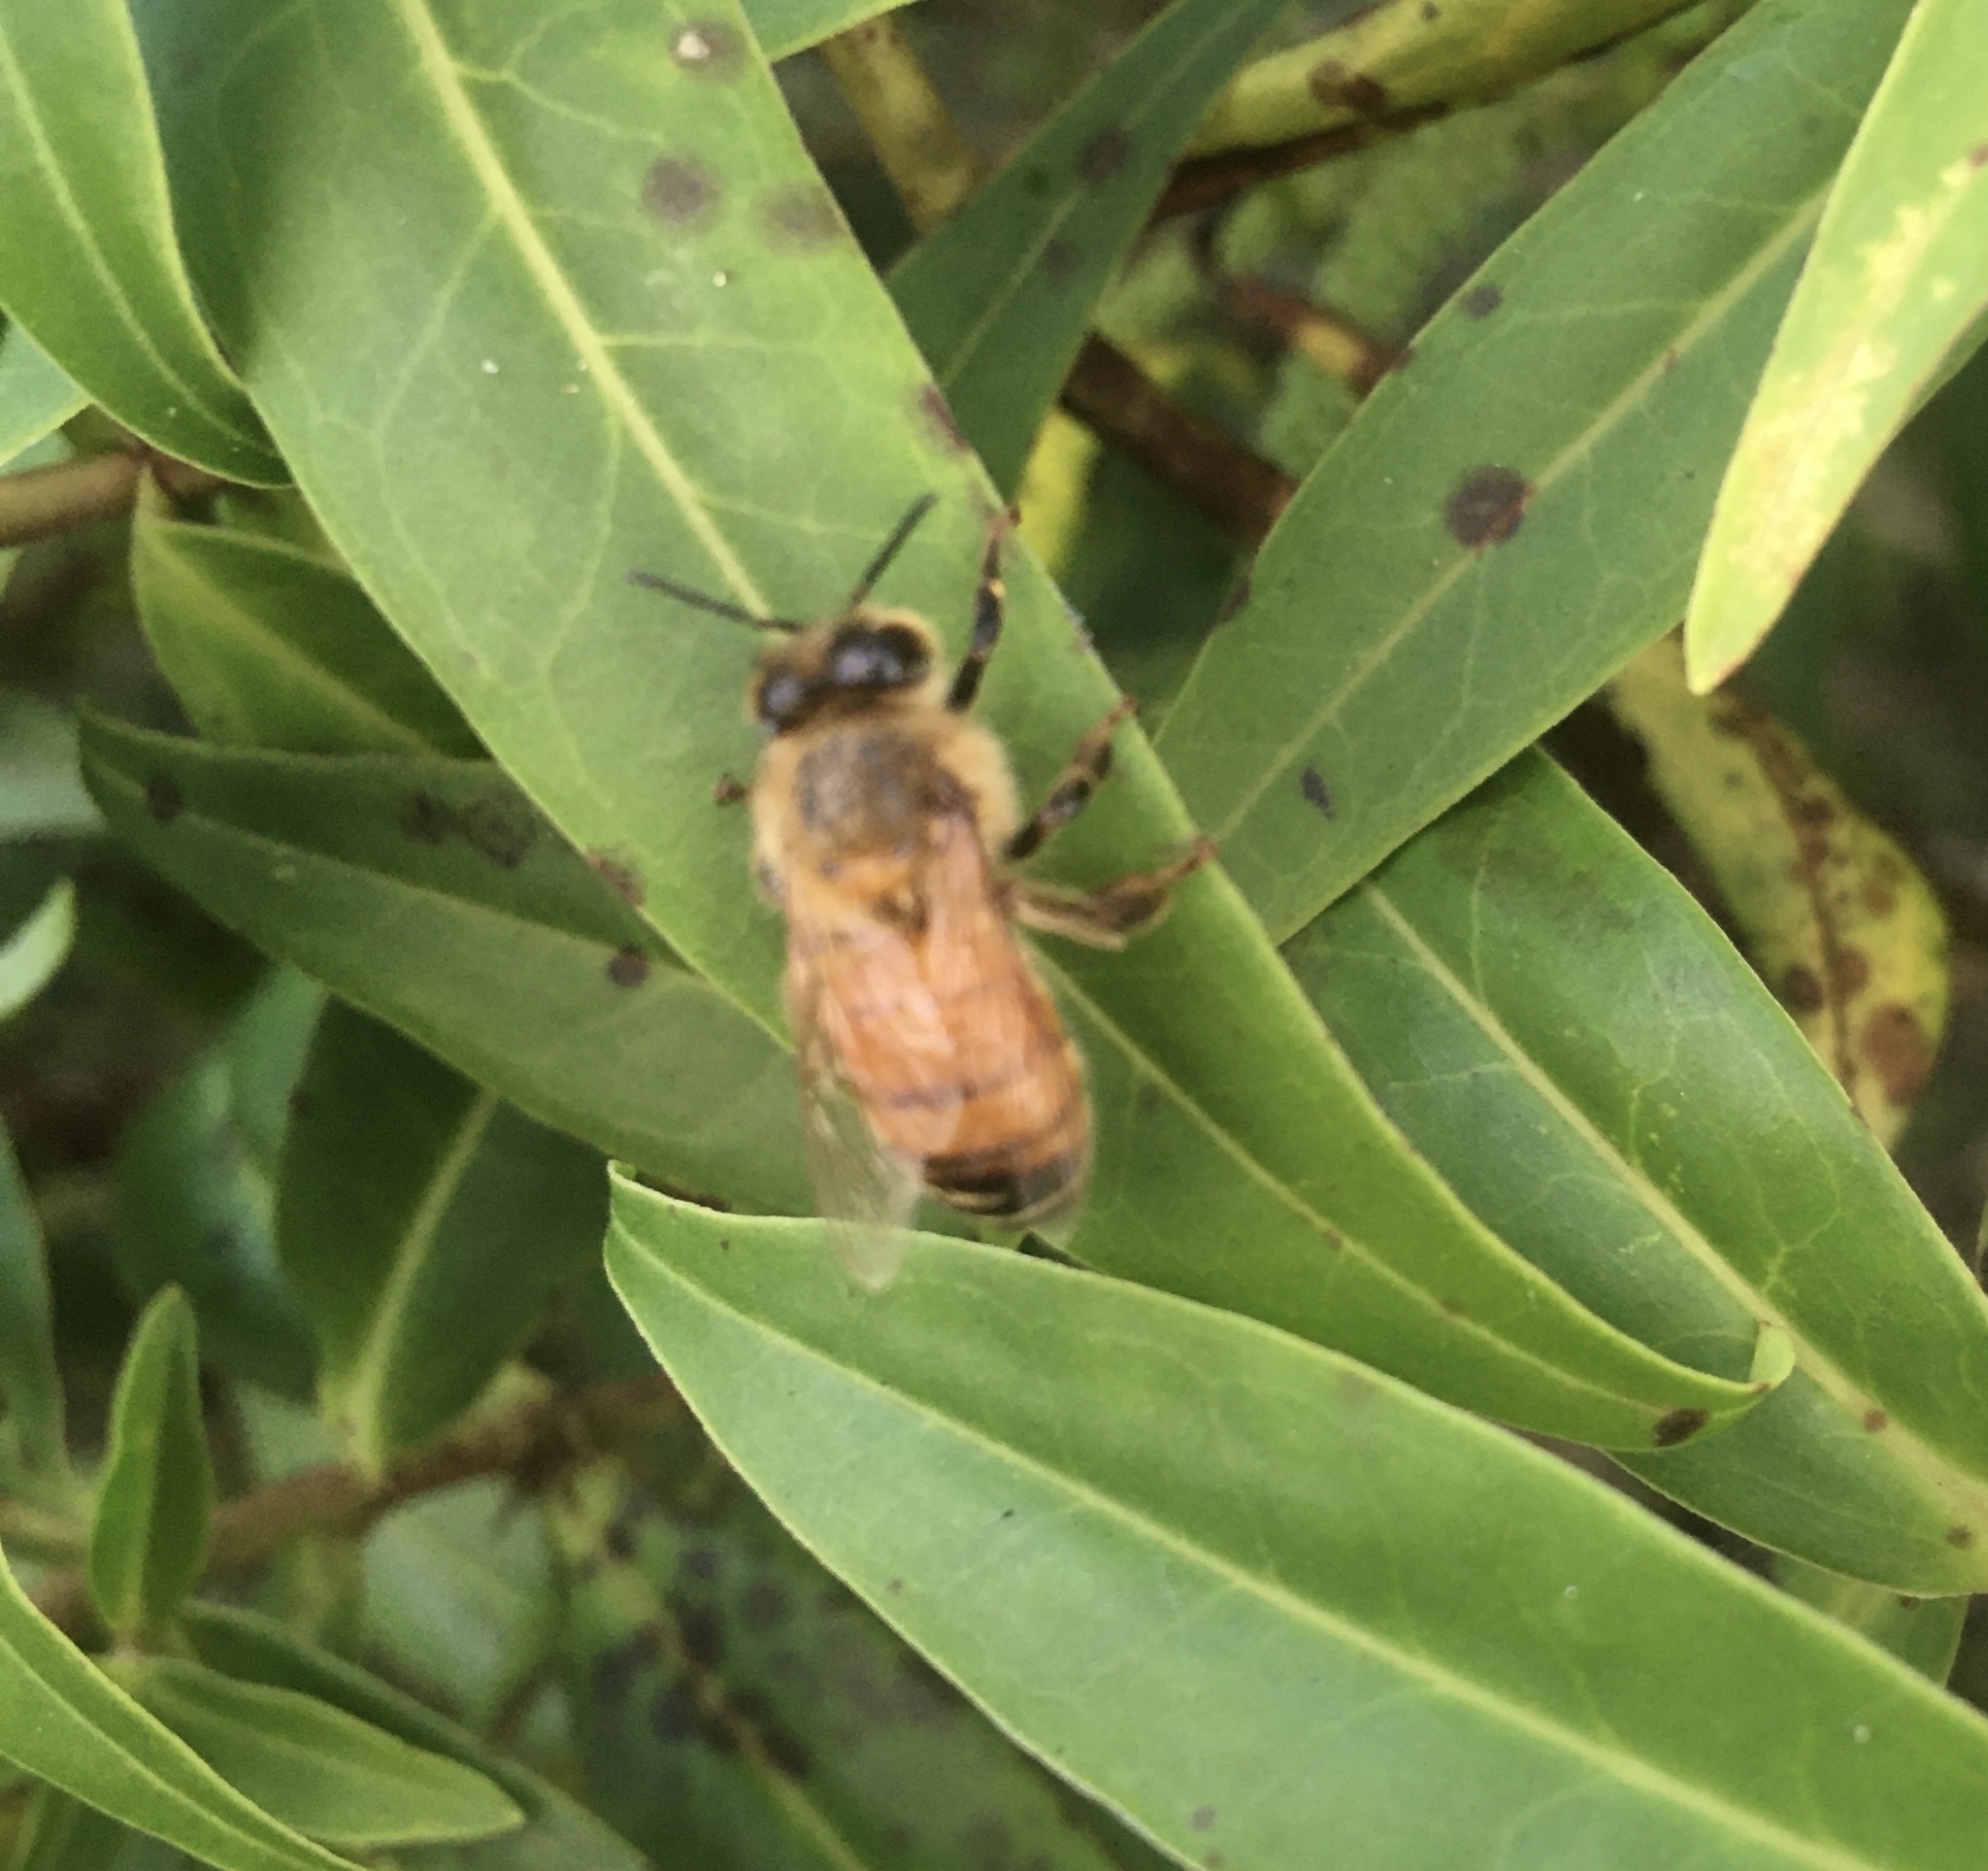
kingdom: Animalia
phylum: Arthropoda
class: Insecta
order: Hymenoptera
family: Apidae
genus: Apis
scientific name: Apis mellifera
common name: Honey bee
